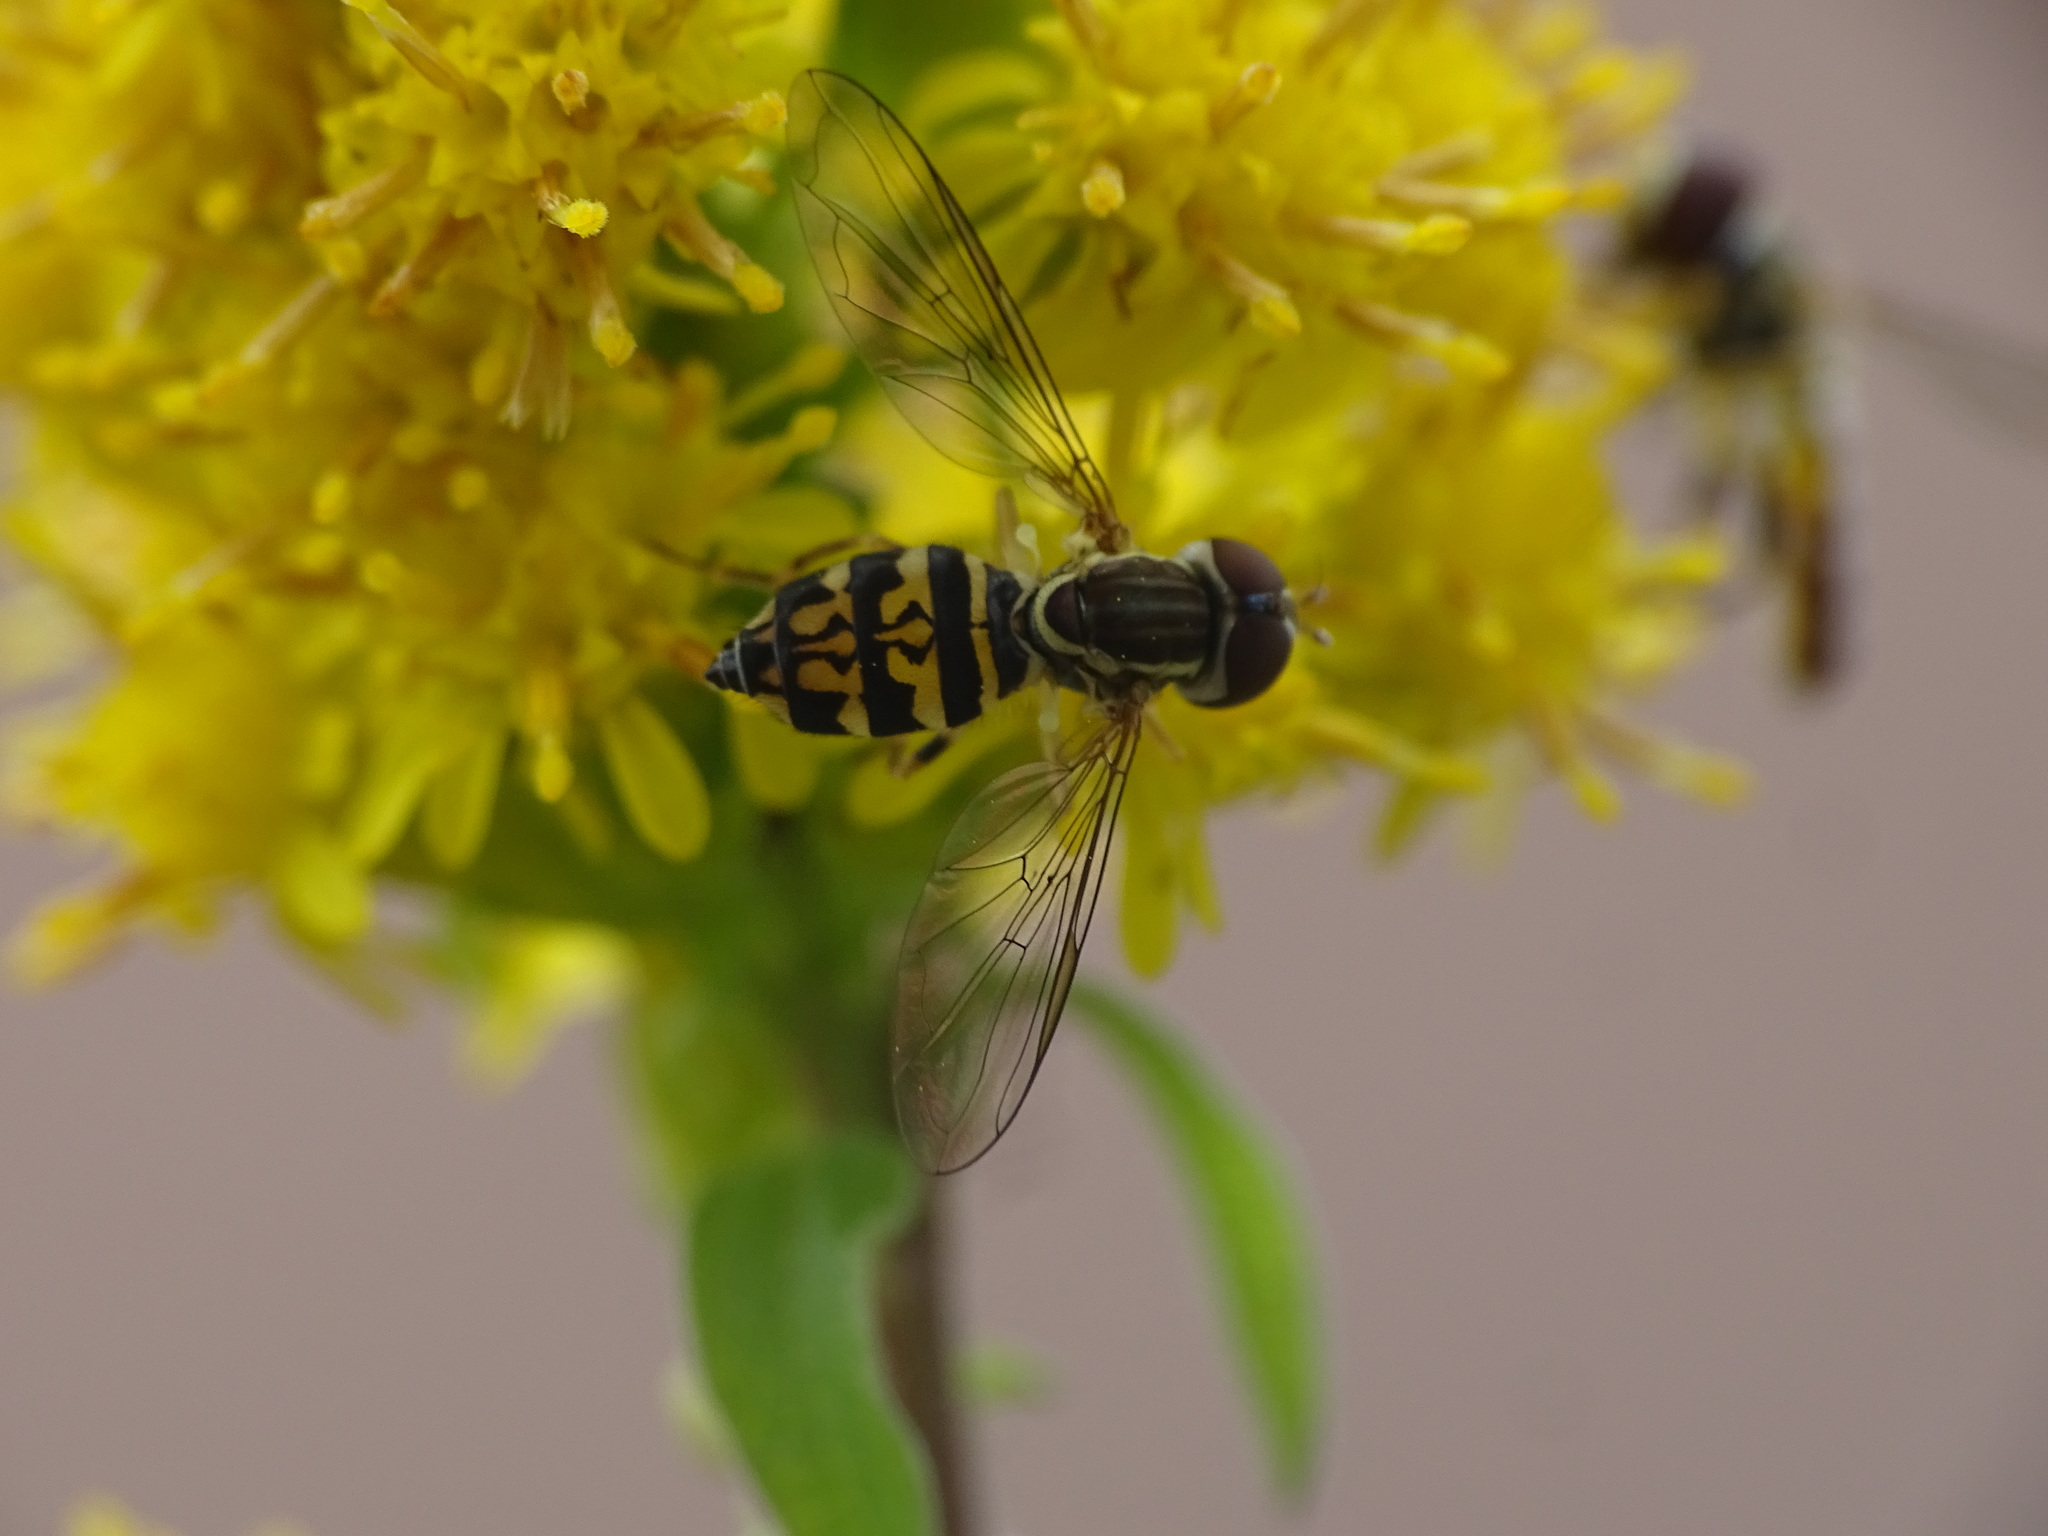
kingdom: Animalia
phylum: Arthropoda
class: Insecta
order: Diptera
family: Syrphidae
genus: Toxomerus
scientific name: Toxomerus geminatus
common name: Eastern calligrapher
